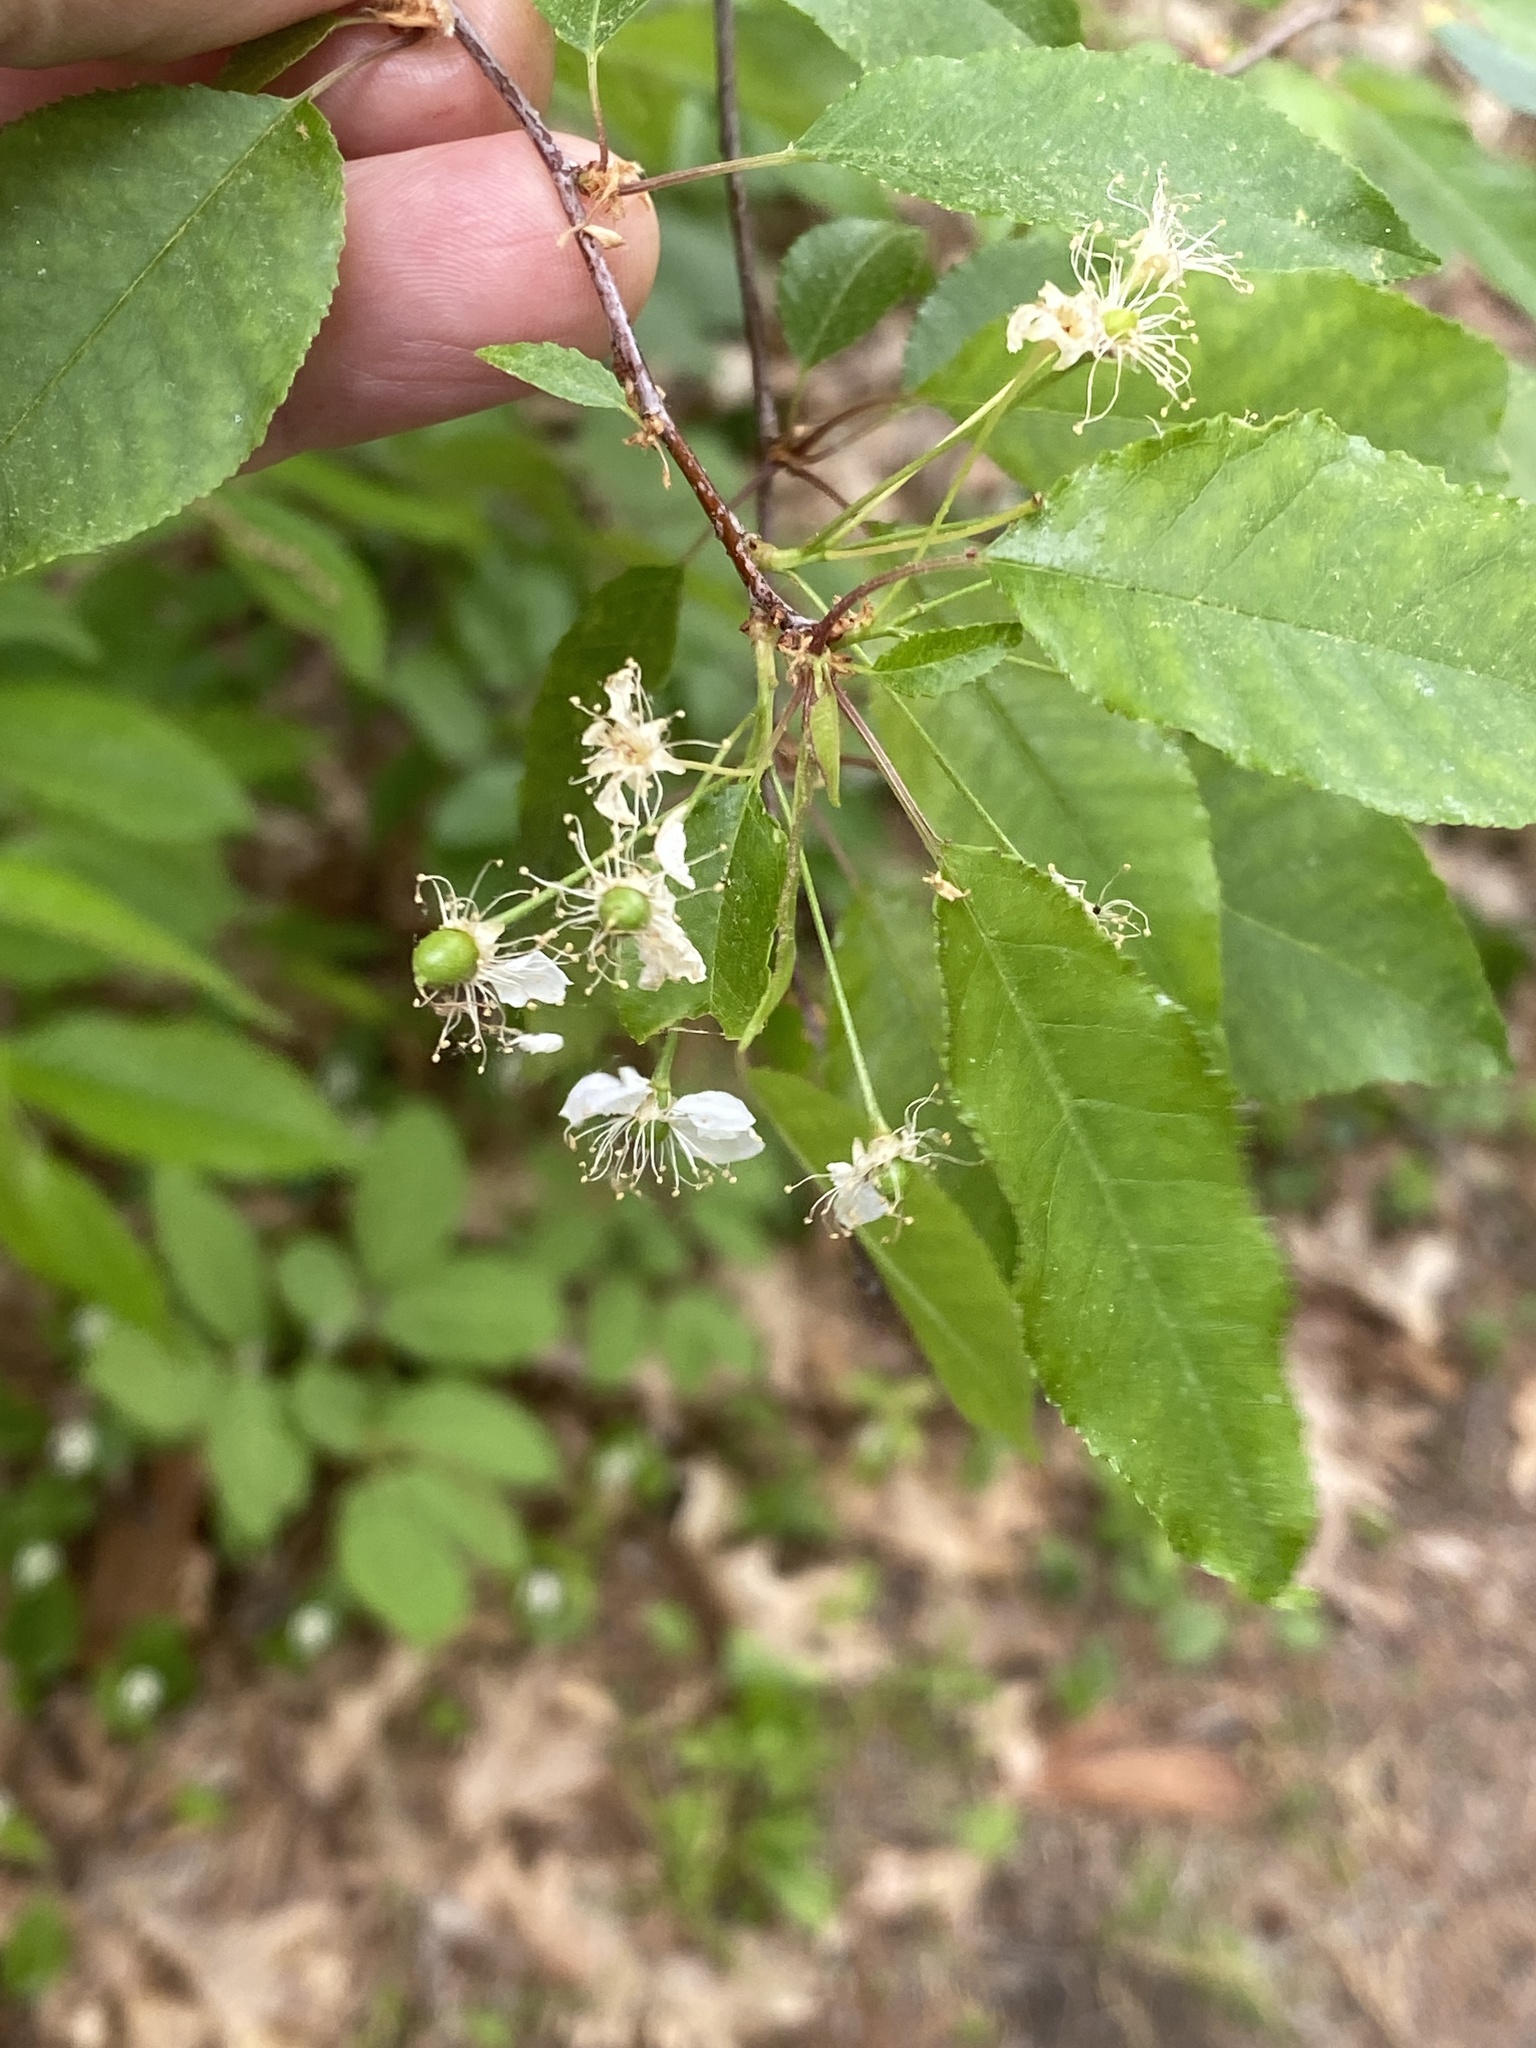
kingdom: Plantae
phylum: Tracheophyta
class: Magnoliopsida
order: Rosales
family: Rosaceae
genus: Prunus
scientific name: Prunus pensylvanica
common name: Pin cherry
